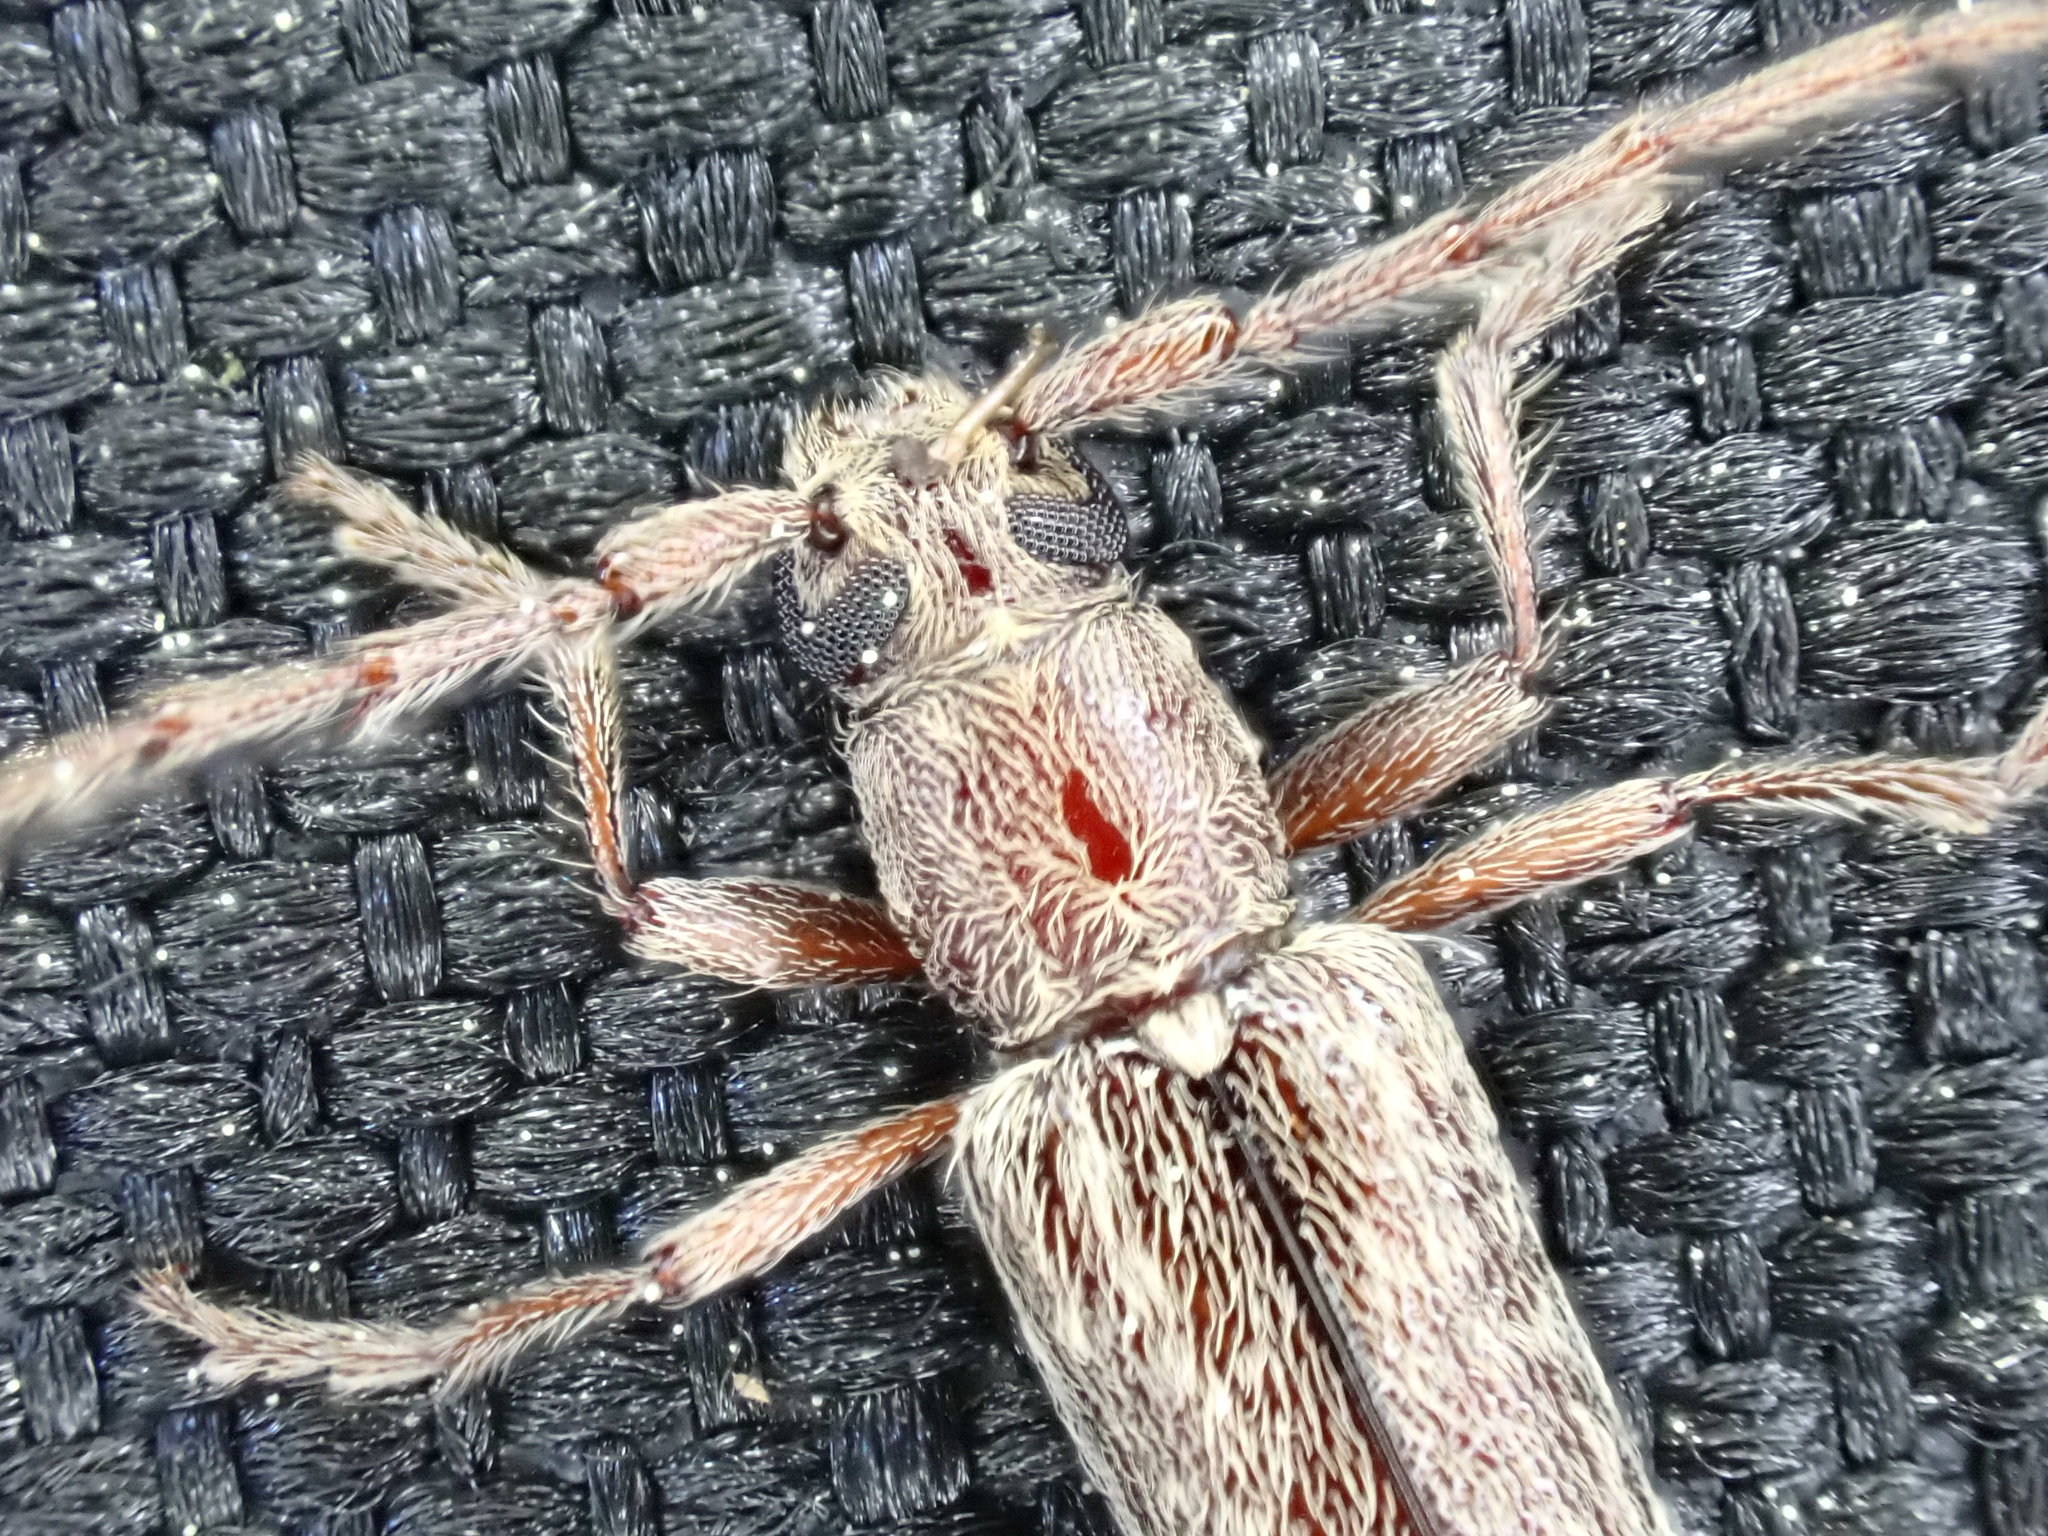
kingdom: Animalia
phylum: Arthropoda
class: Insecta
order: Coleoptera
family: Cerambycidae
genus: Anelaphus
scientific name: Anelaphus villosus
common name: Twig pruner
